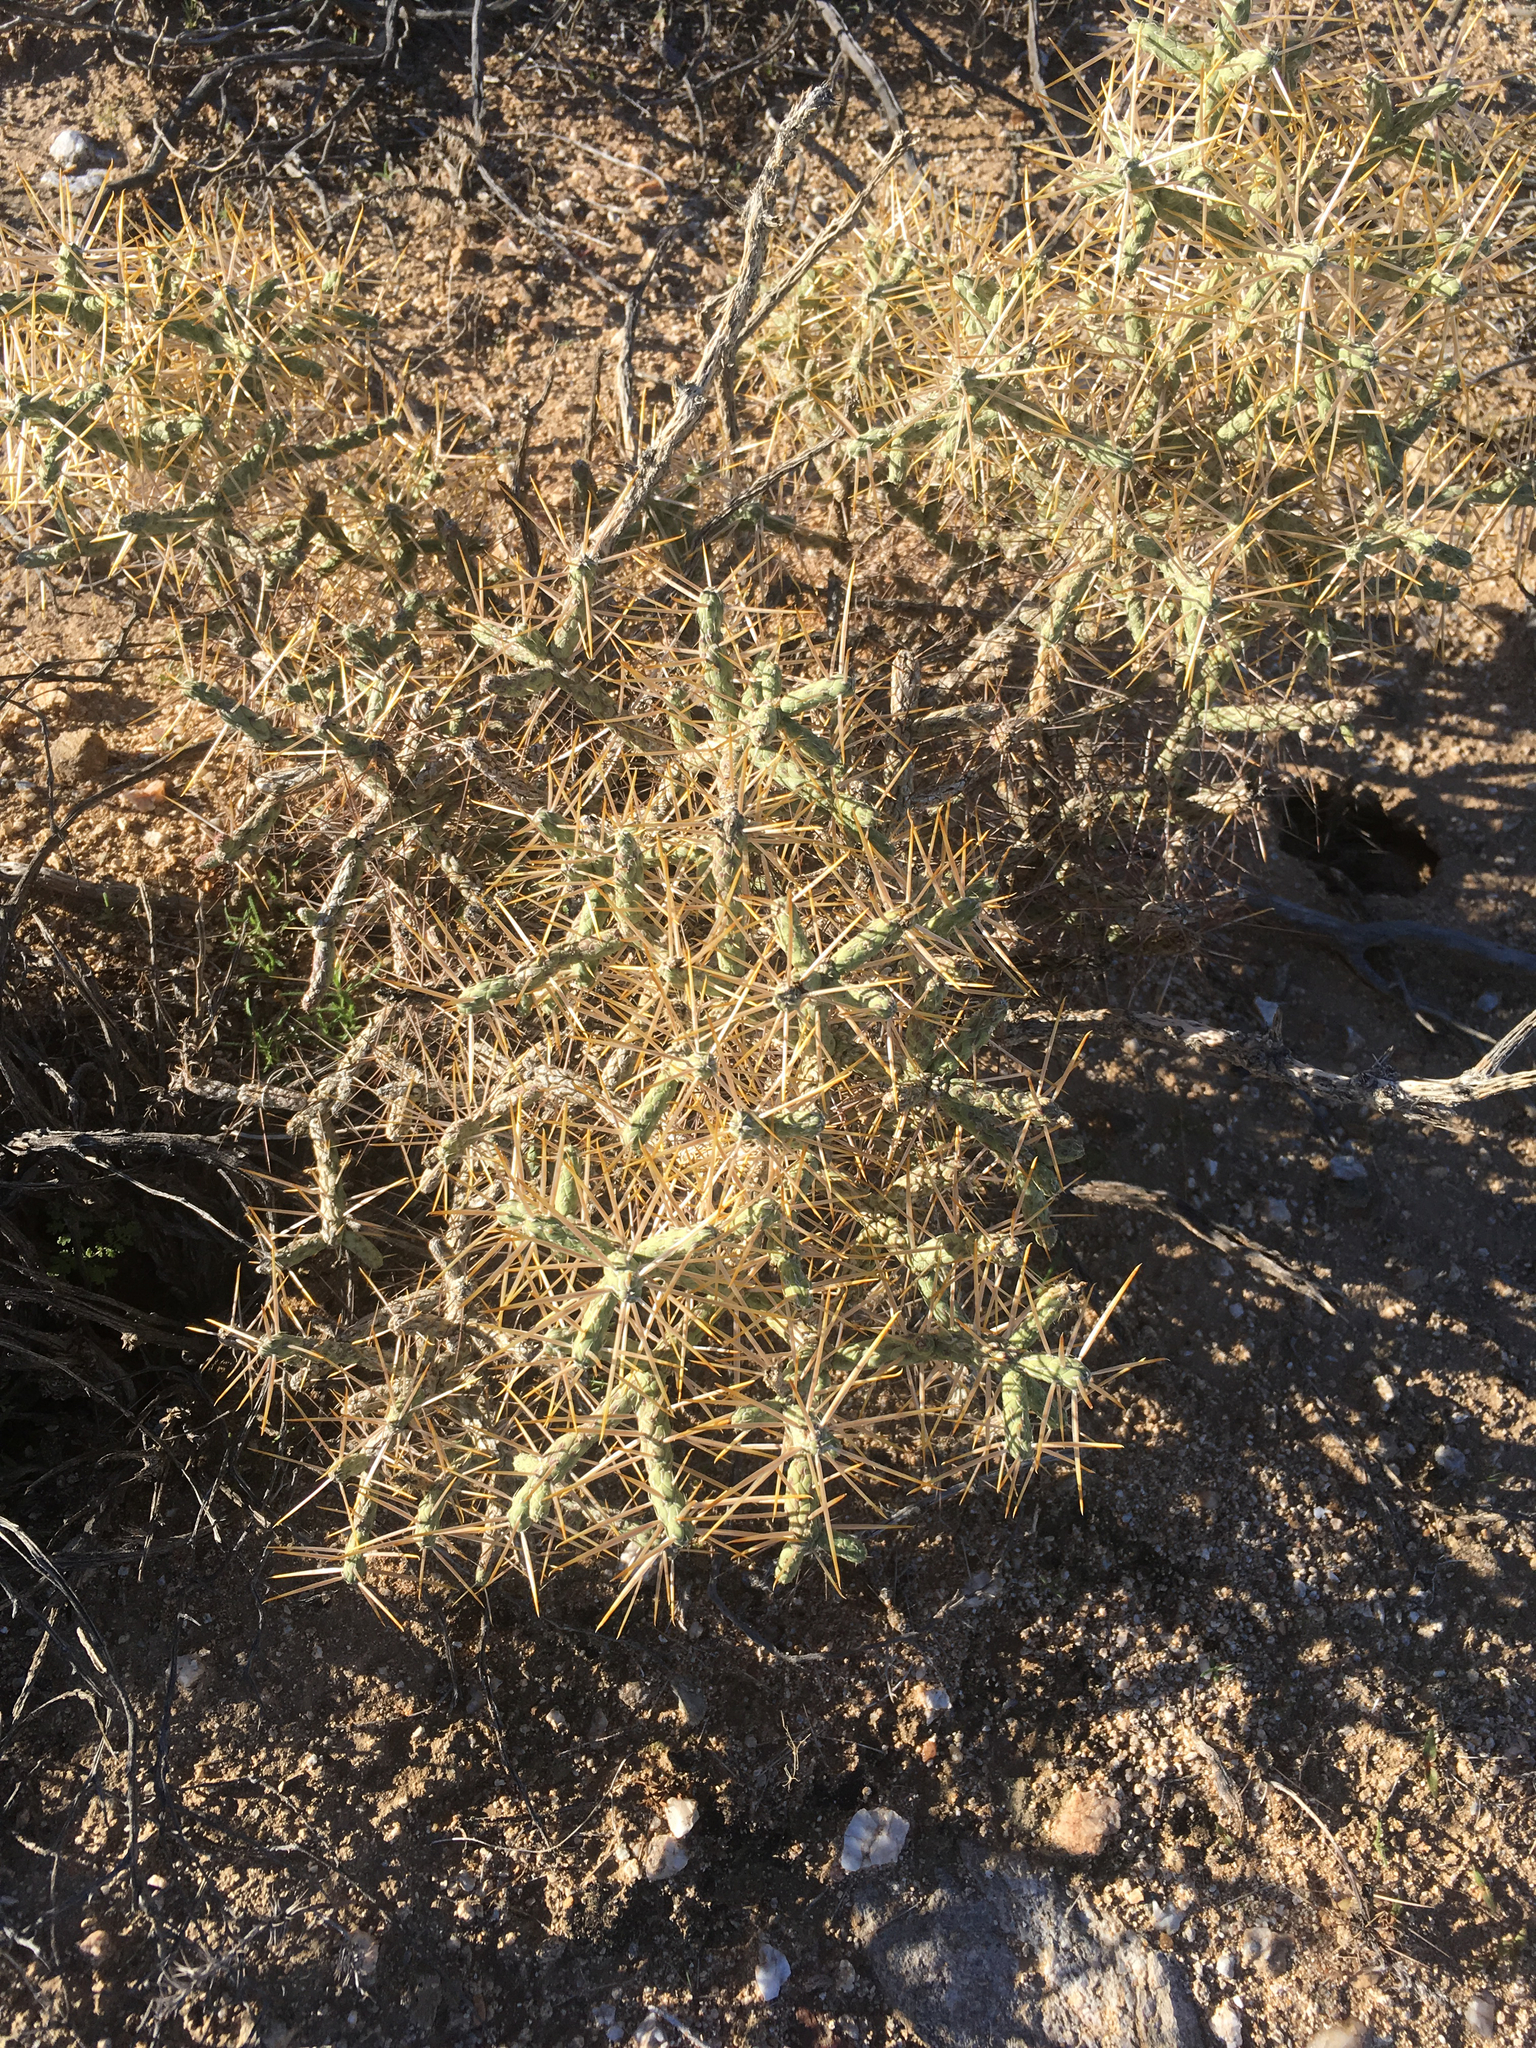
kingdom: Plantae
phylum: Tracheophyta
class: Magnoliopsida
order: Caryophyllales
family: Cactaceae
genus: Cylindropuntia
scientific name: Cylindropuntia ramosissima
